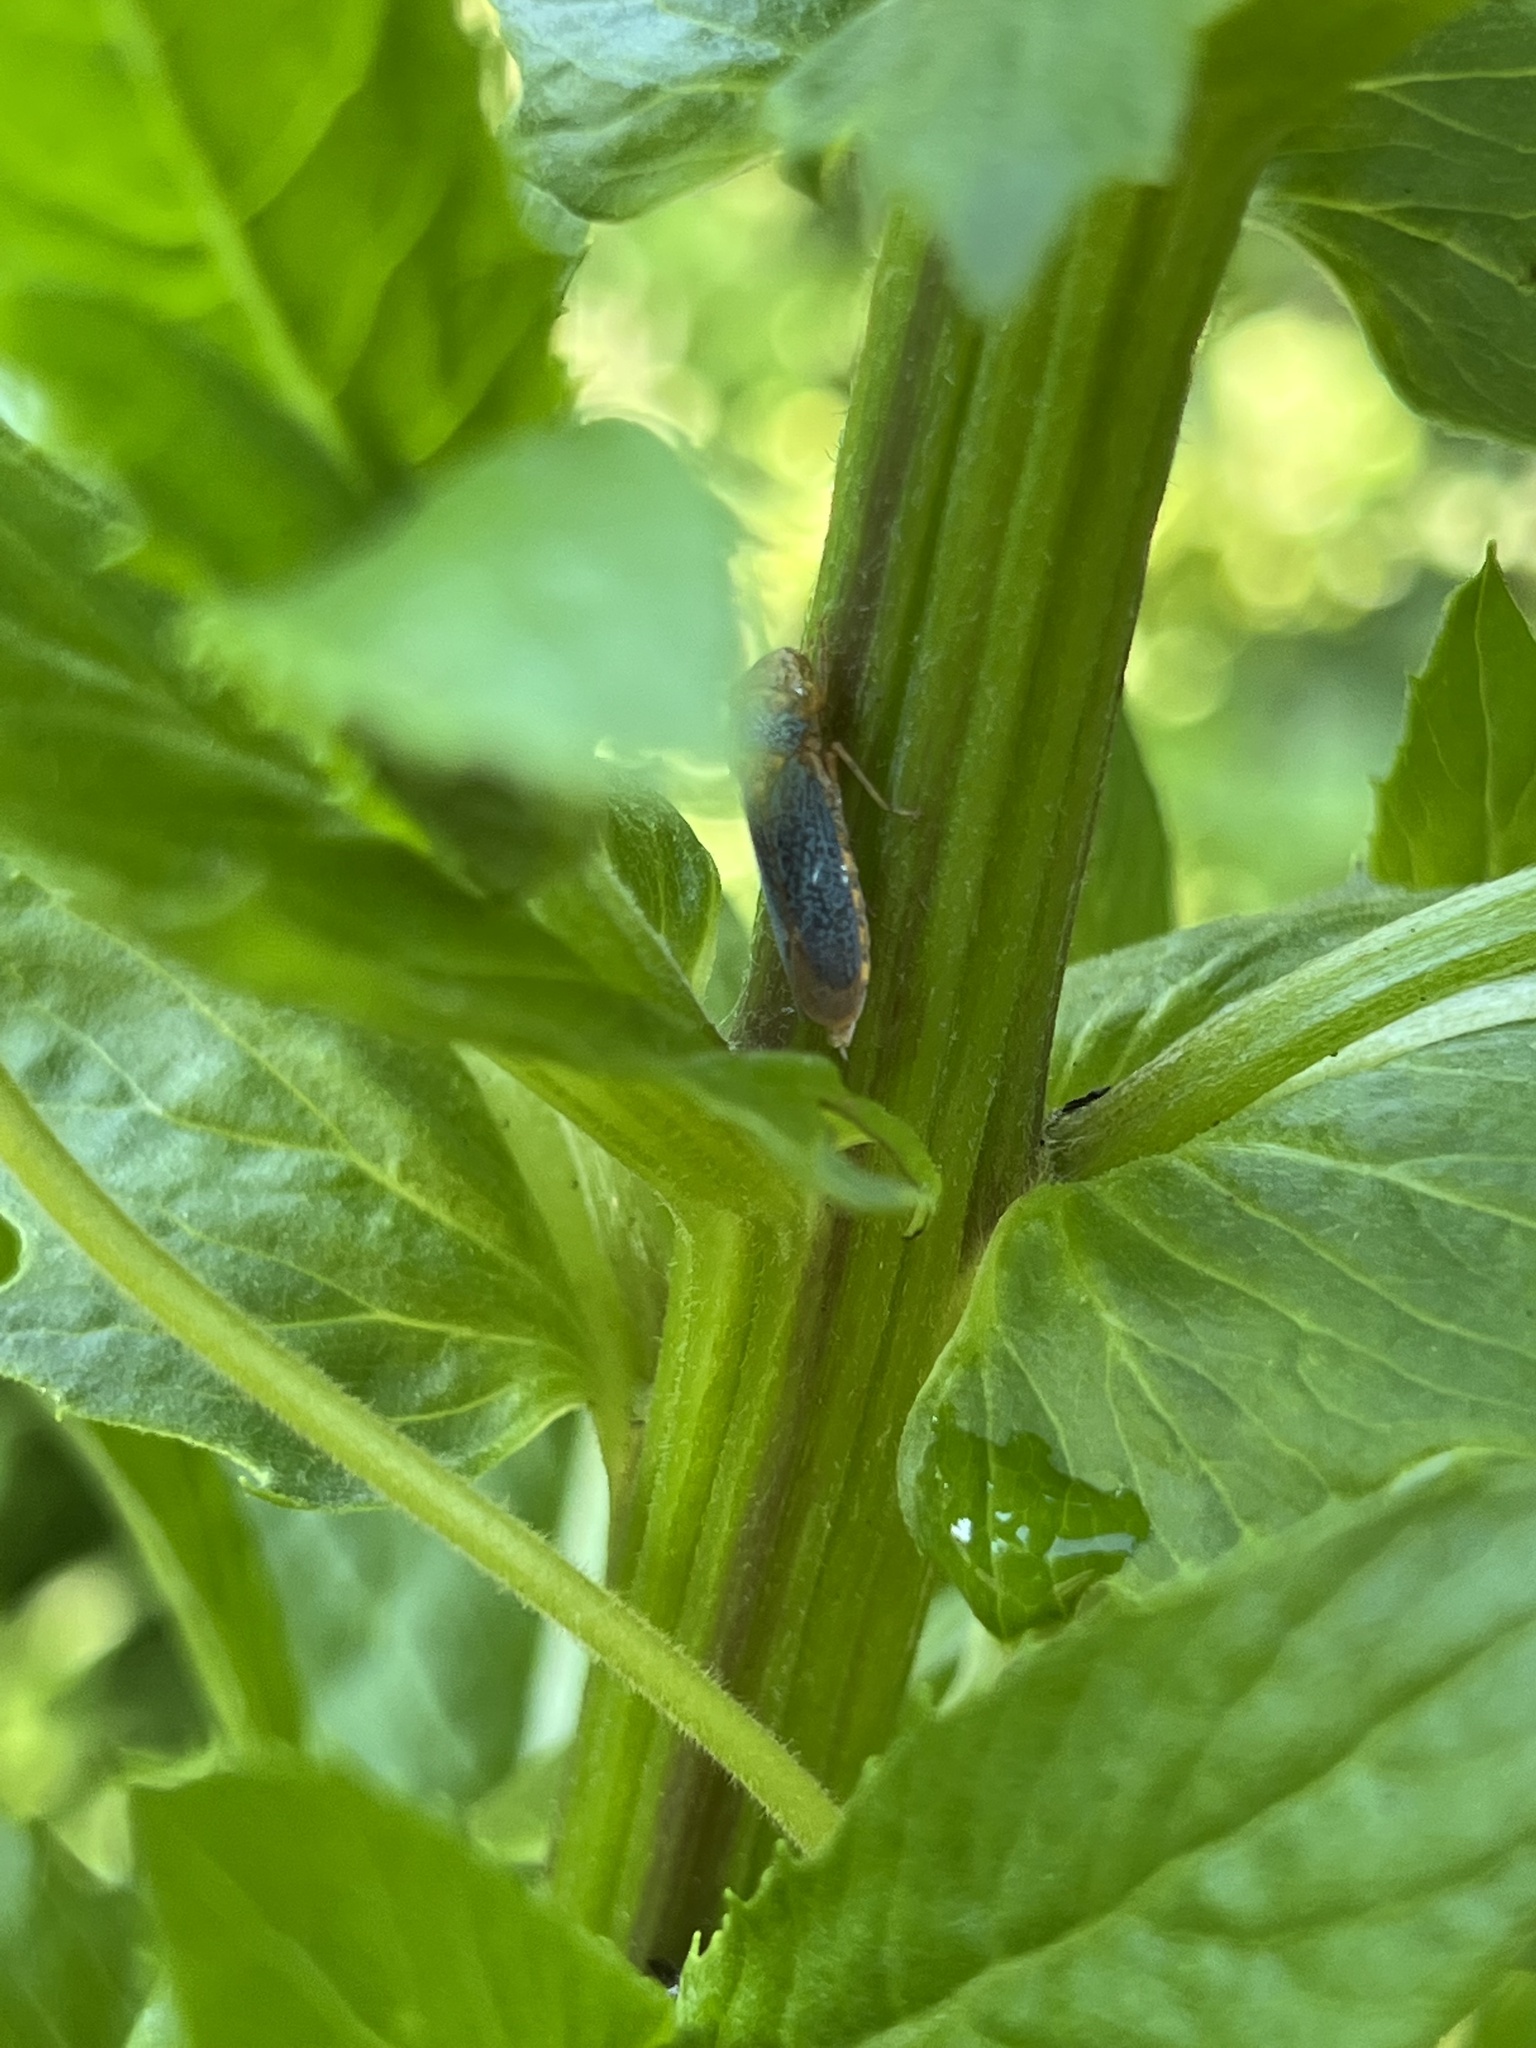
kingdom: Animalia
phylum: Arthropoda
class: Insecta
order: Hemiptera
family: Cicadellidae
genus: Oncometopia
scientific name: Oncometopia orbona
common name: Broad-headed sharpshooter
